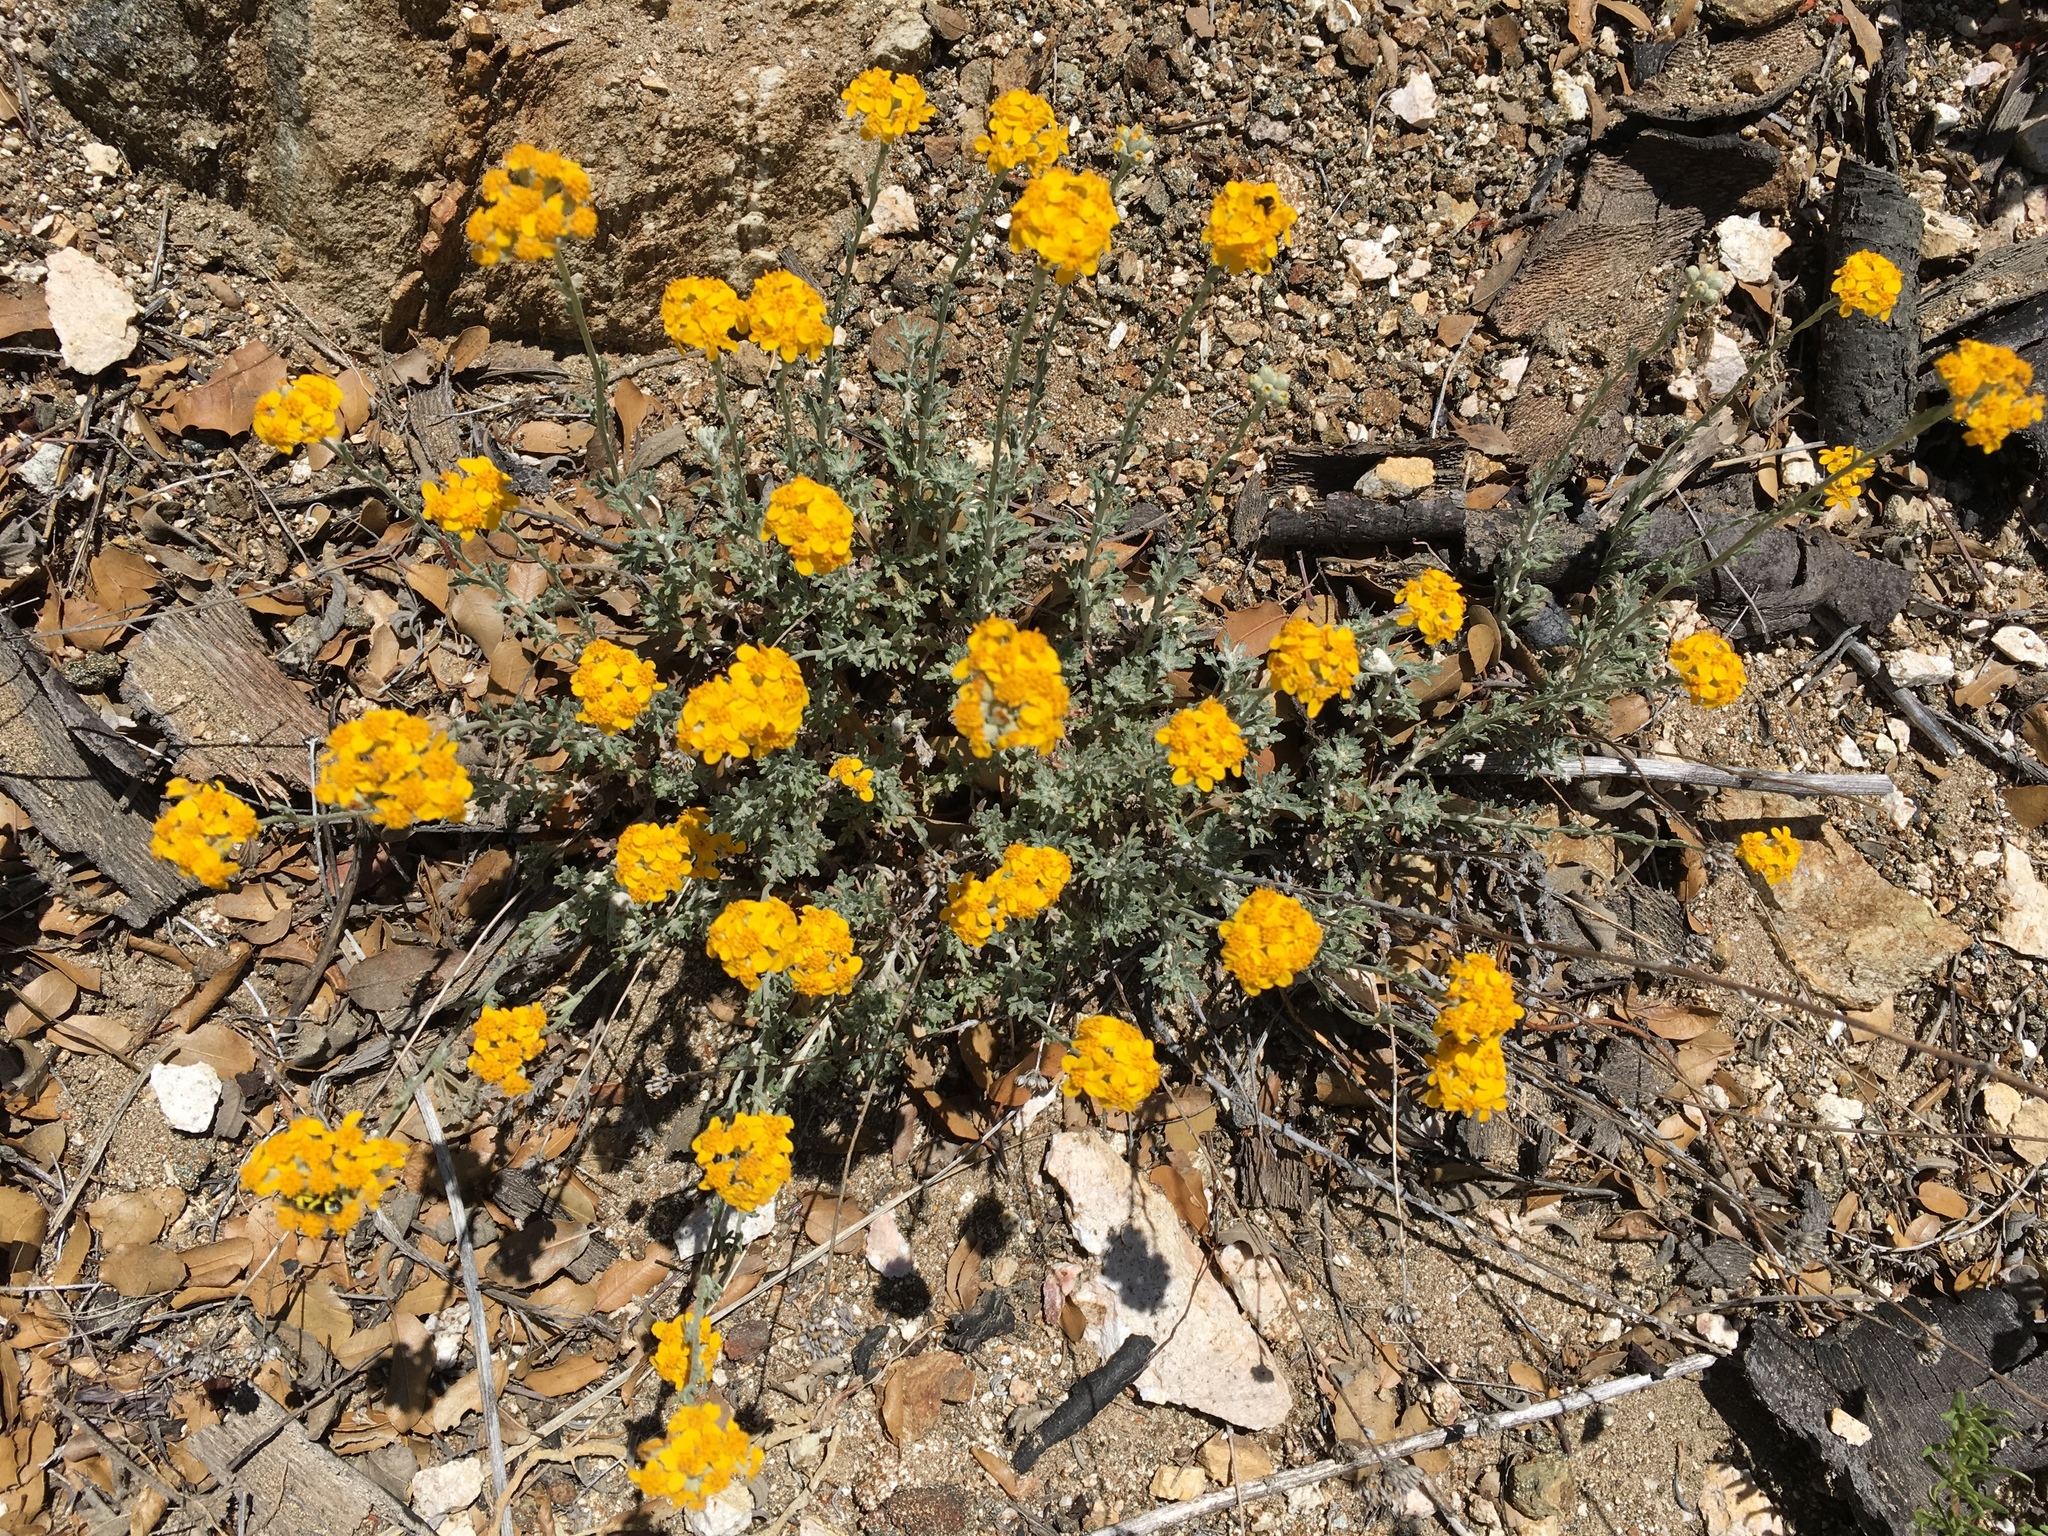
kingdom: Plantae
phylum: Tracheophyta
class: Magnoliopsida
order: Asterales
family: Asteraceae
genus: Eriophyllum
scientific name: Eriophyllum confertiflorum
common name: Golden-yarrow
